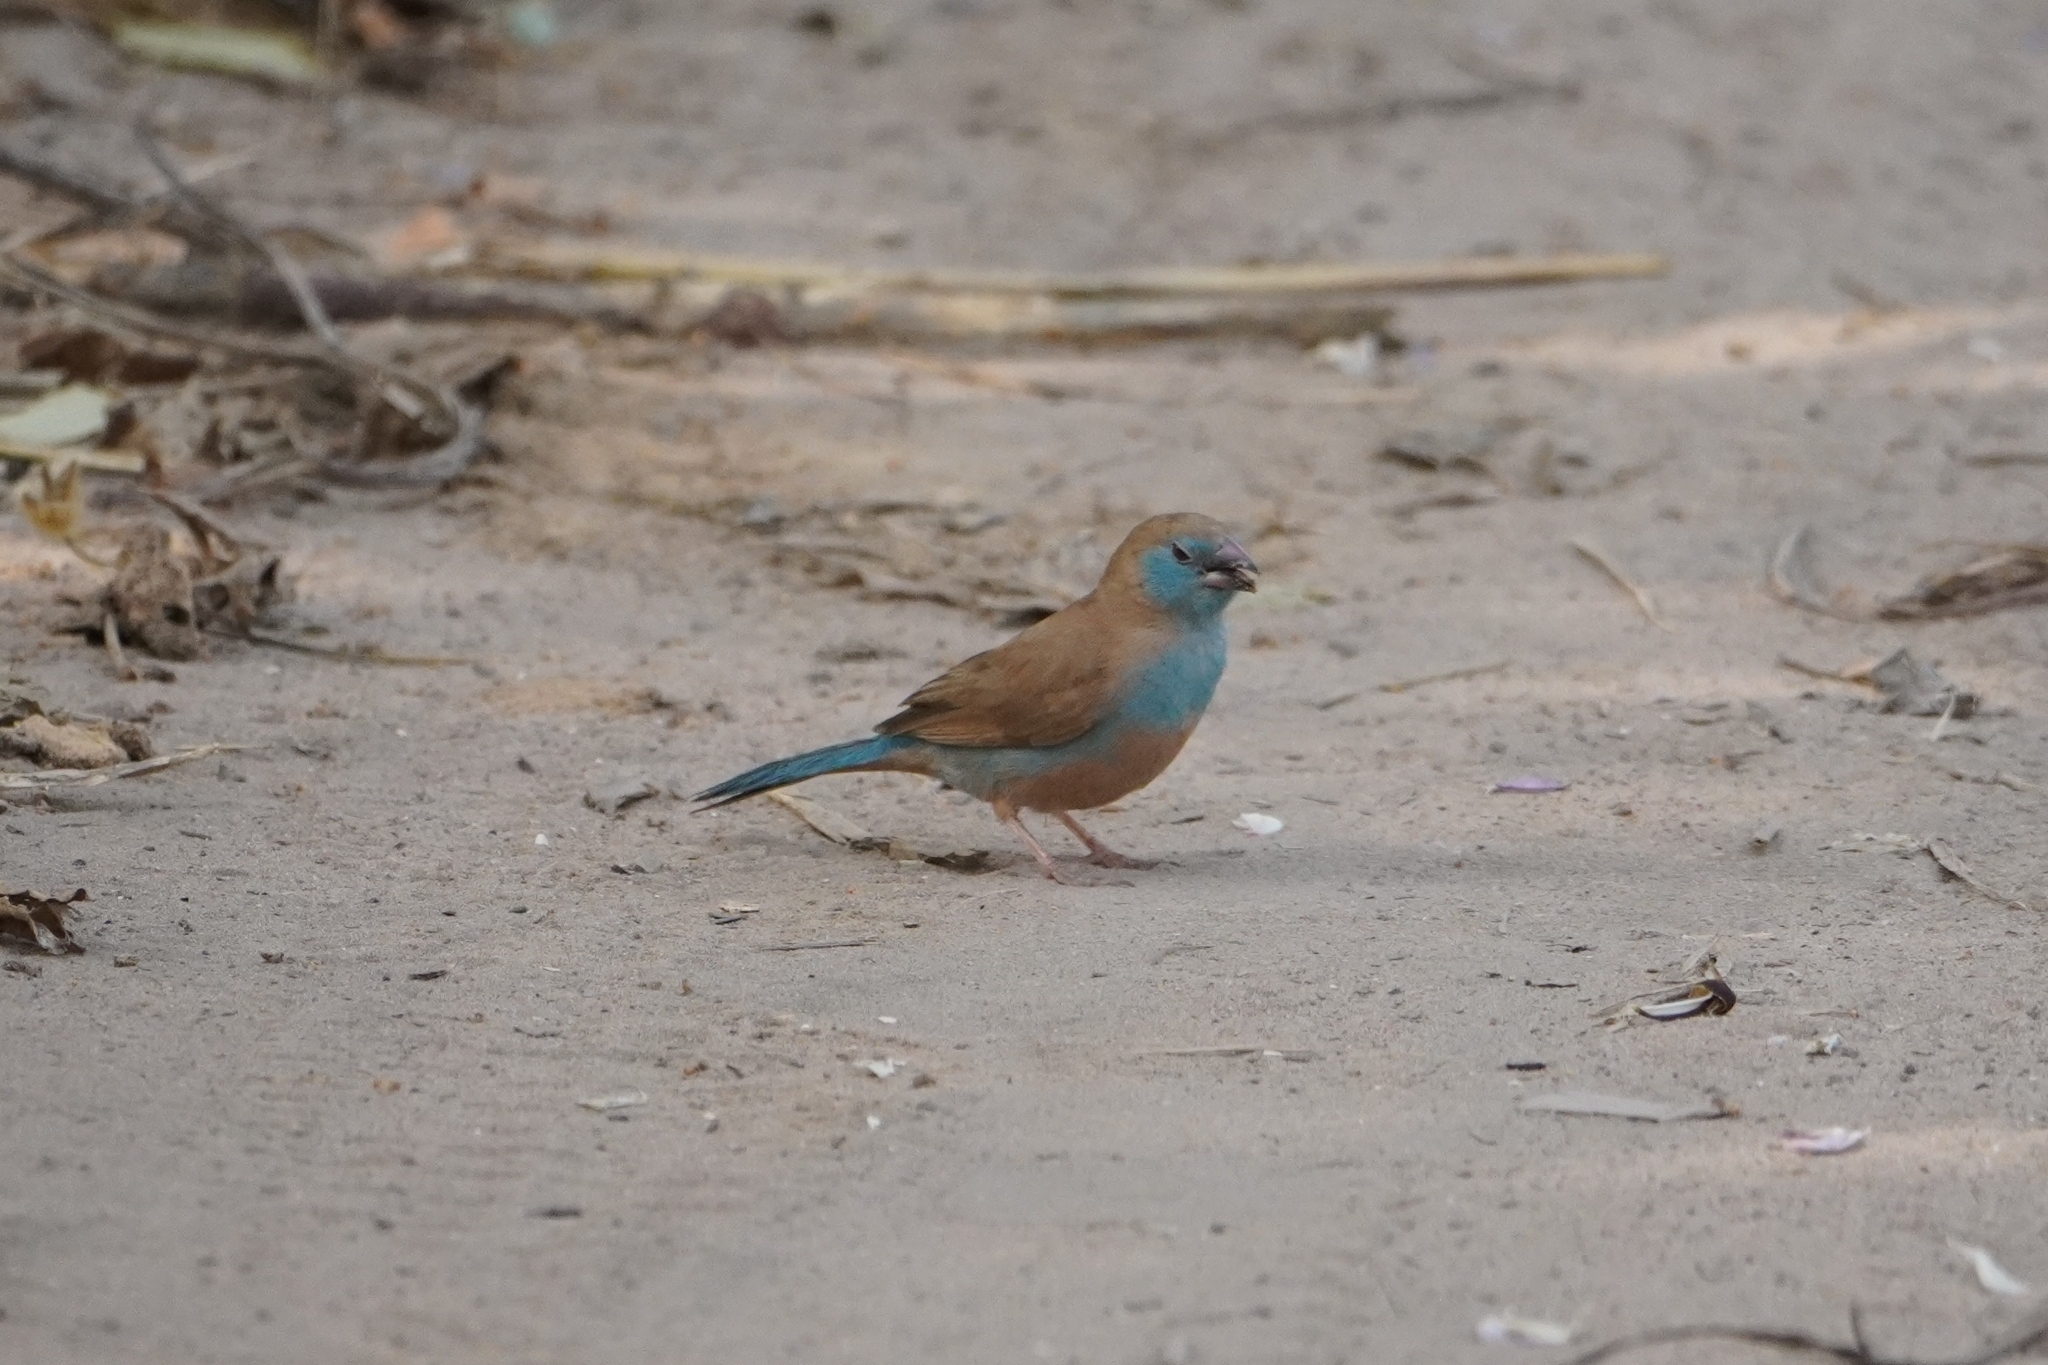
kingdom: Animalia
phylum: Chordata
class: Aves
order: Passeriformes
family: Estrildidae
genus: Uraeginthus
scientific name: Uraeginthus bengalus
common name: Red-cheeked cordon-bleu
